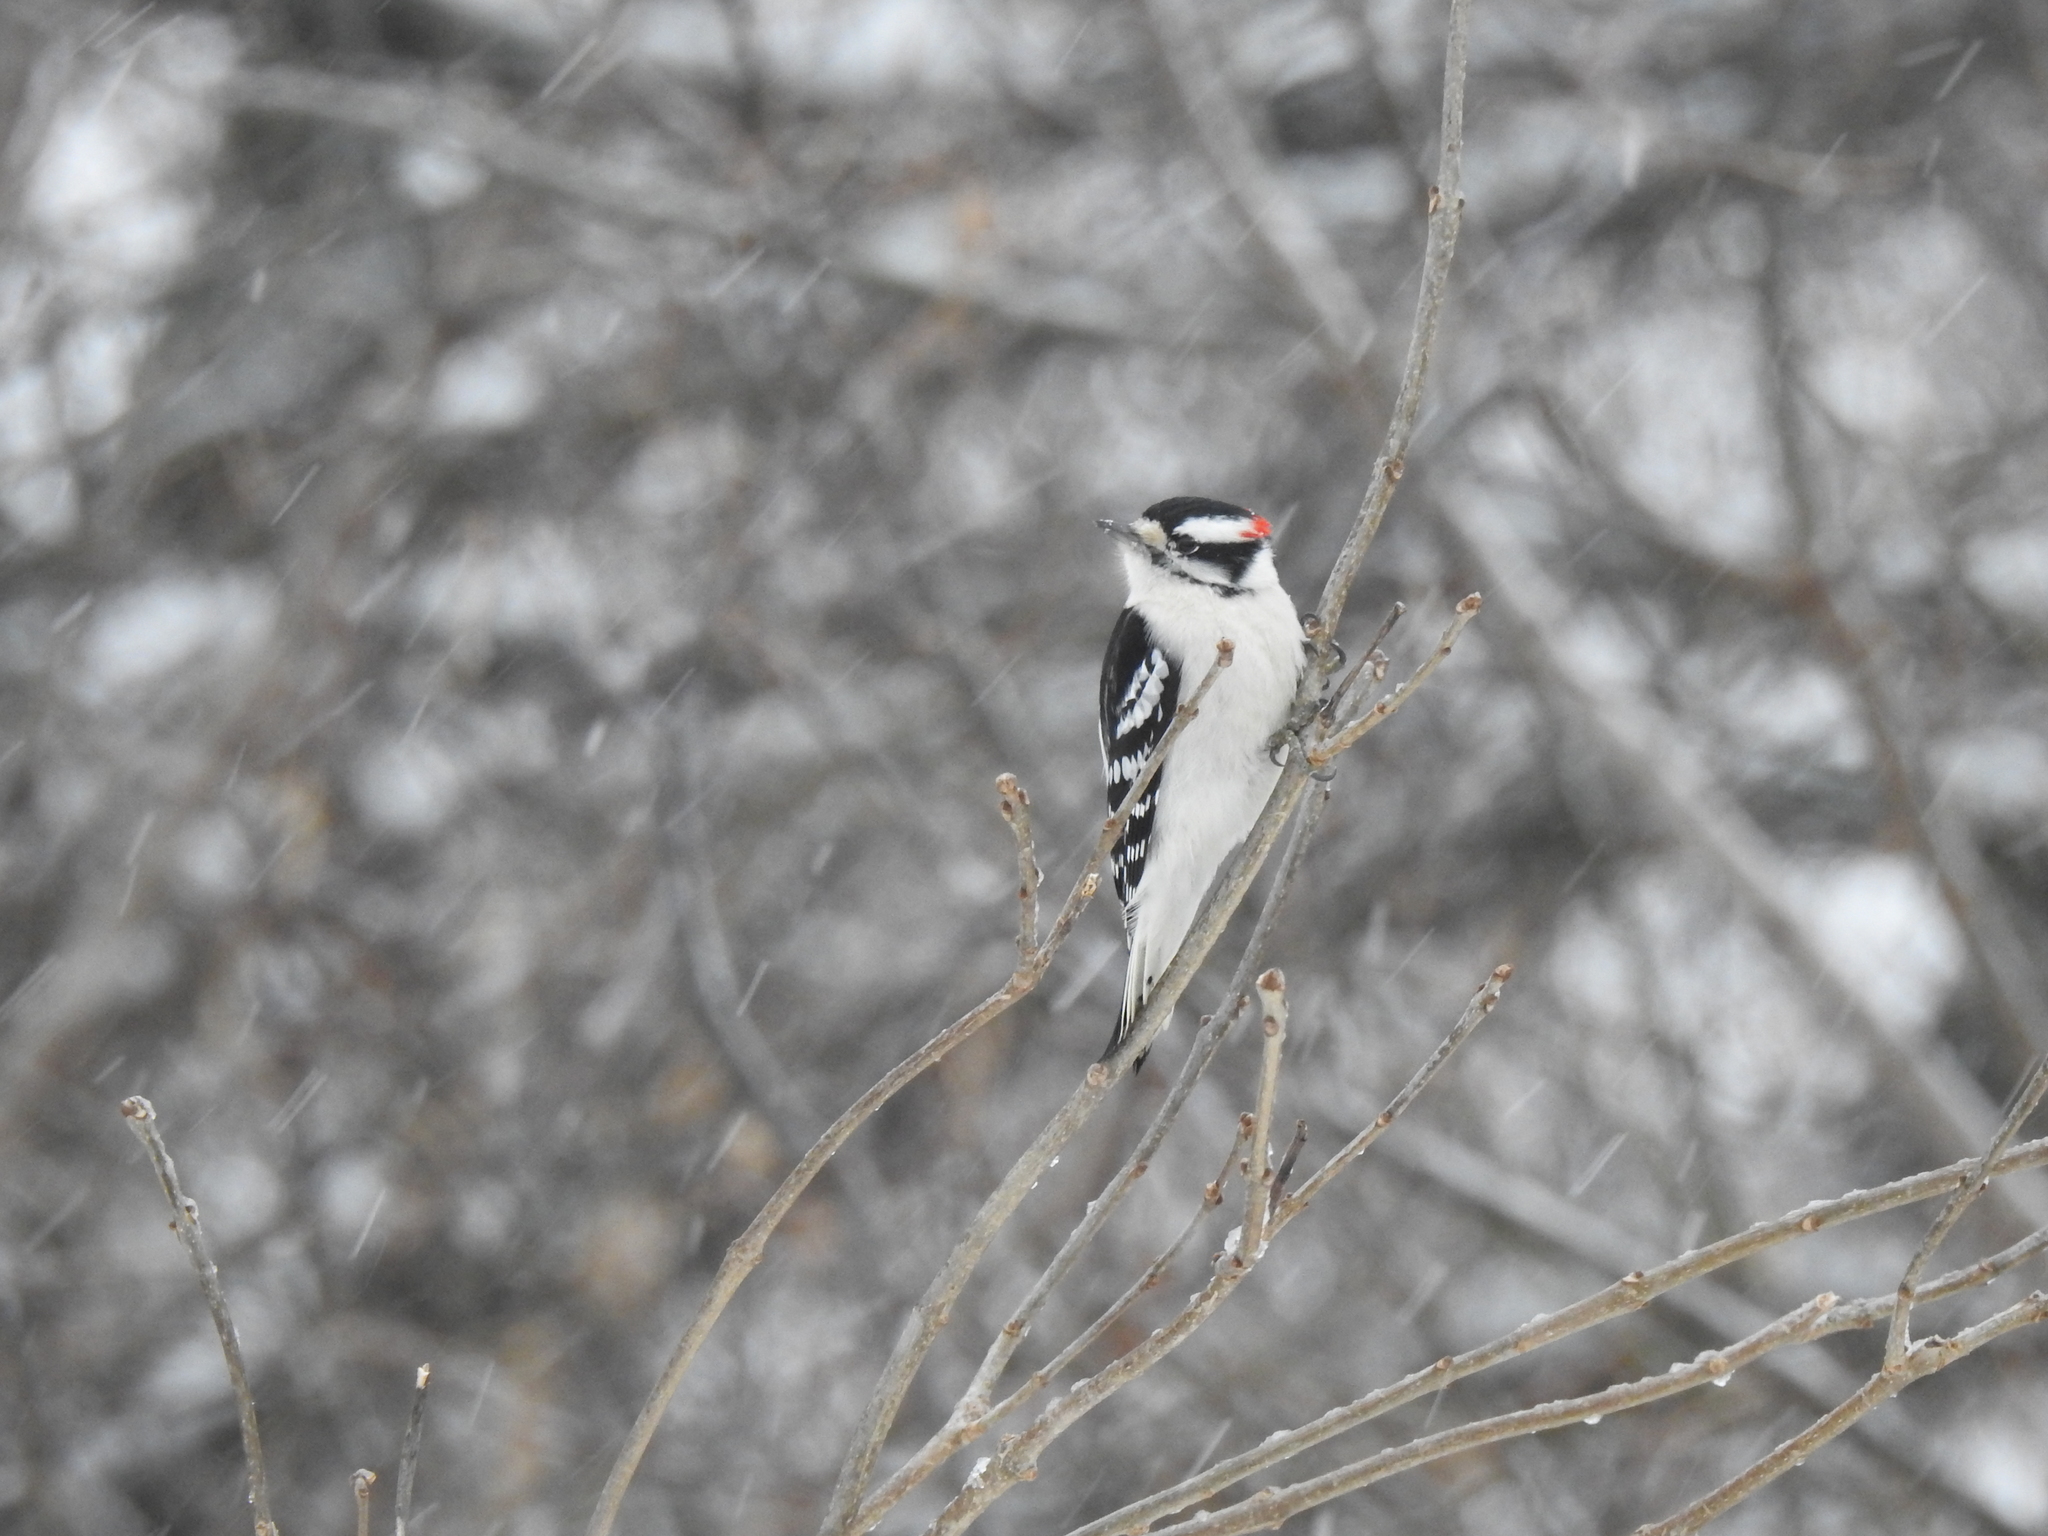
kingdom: Animalia
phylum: Chordata
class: Aves
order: Piciformes
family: Picidae
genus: Dryobates
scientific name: Dryobates pubescens
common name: Downy woodpecker
